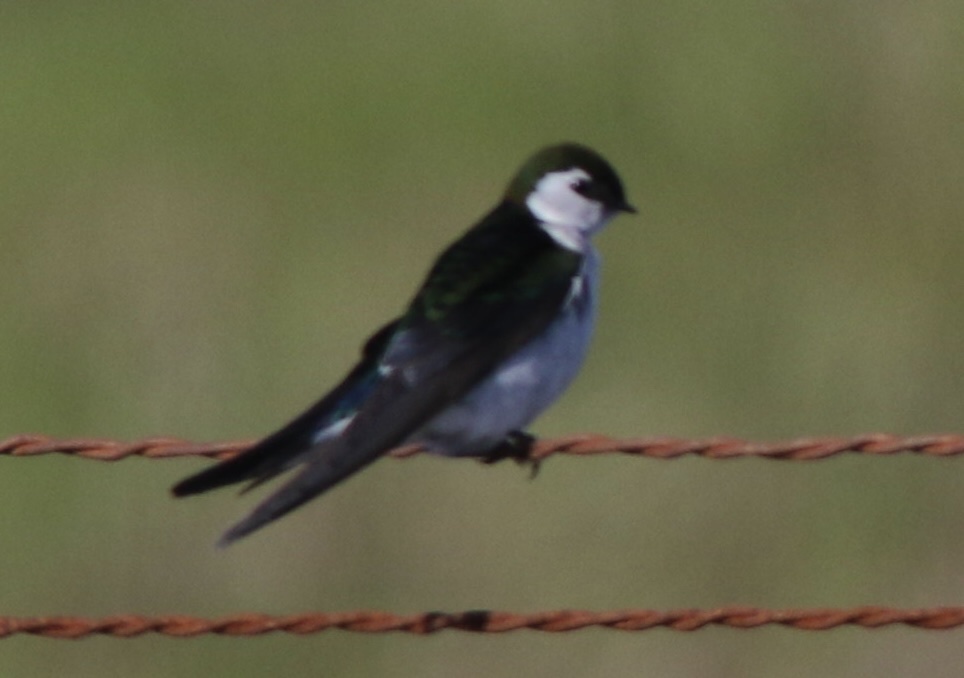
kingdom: Animalia
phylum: Chordata
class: Aves
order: Passeriformes
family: Hirundinidae
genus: Tachycineta
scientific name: Tachycineta thalassina
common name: Violet-green swallow
